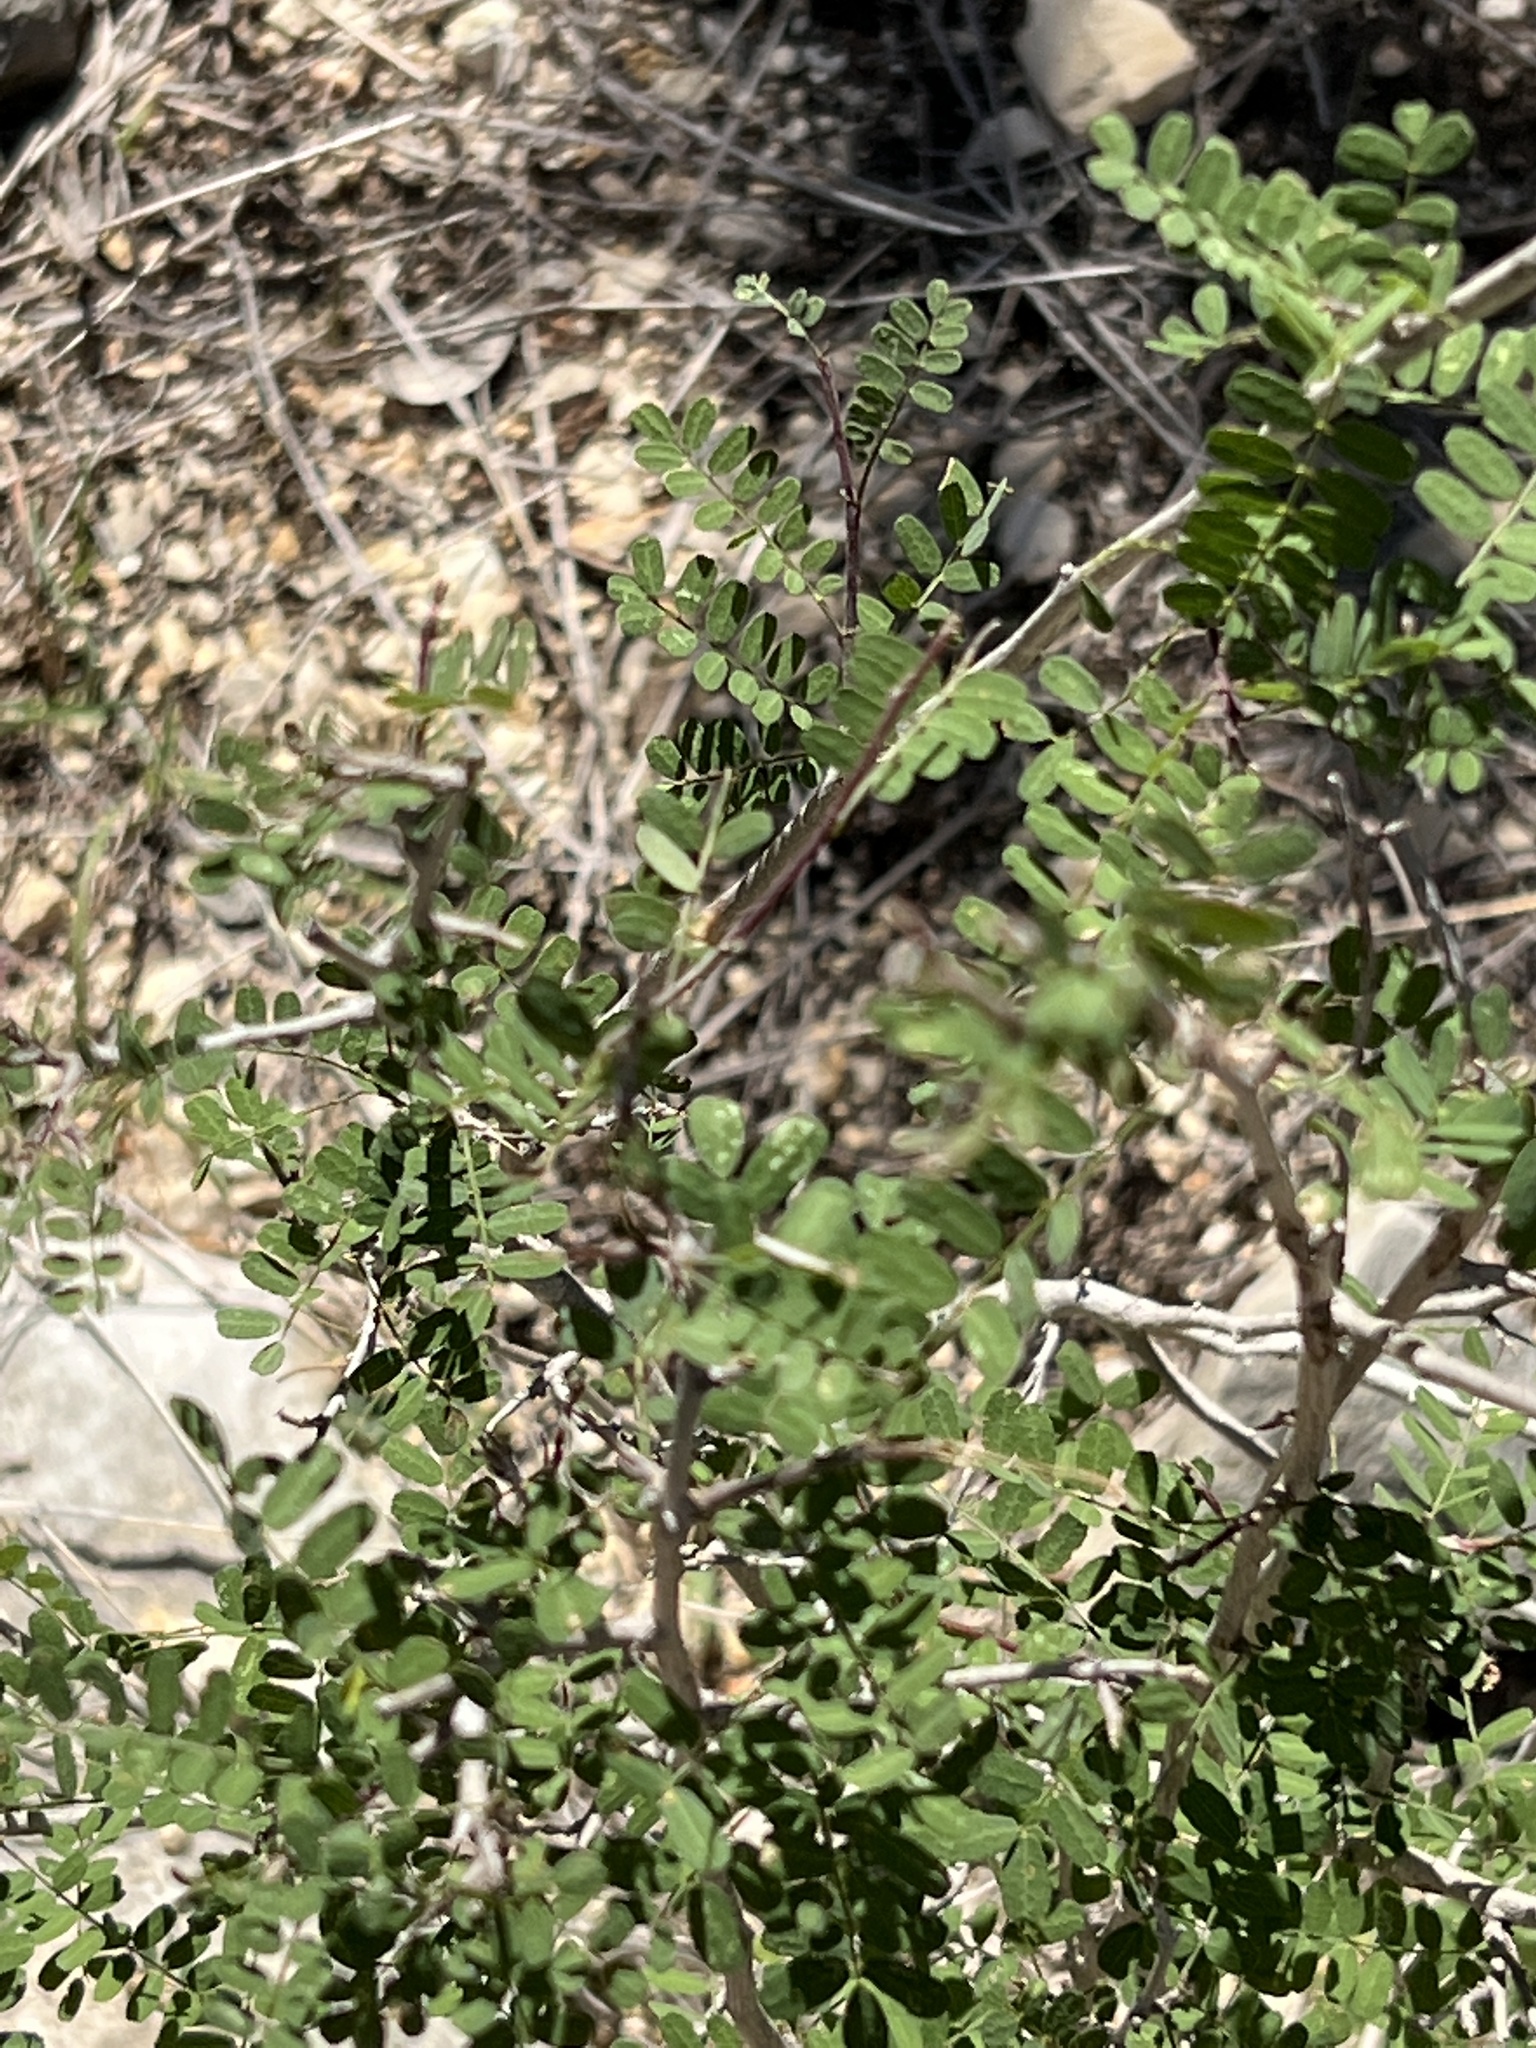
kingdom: Plantae
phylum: Tracheophyta
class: Magnoliopsida
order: Fabales
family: Fabaceae
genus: Eysenhardtia
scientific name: Eysenhardtia texana
